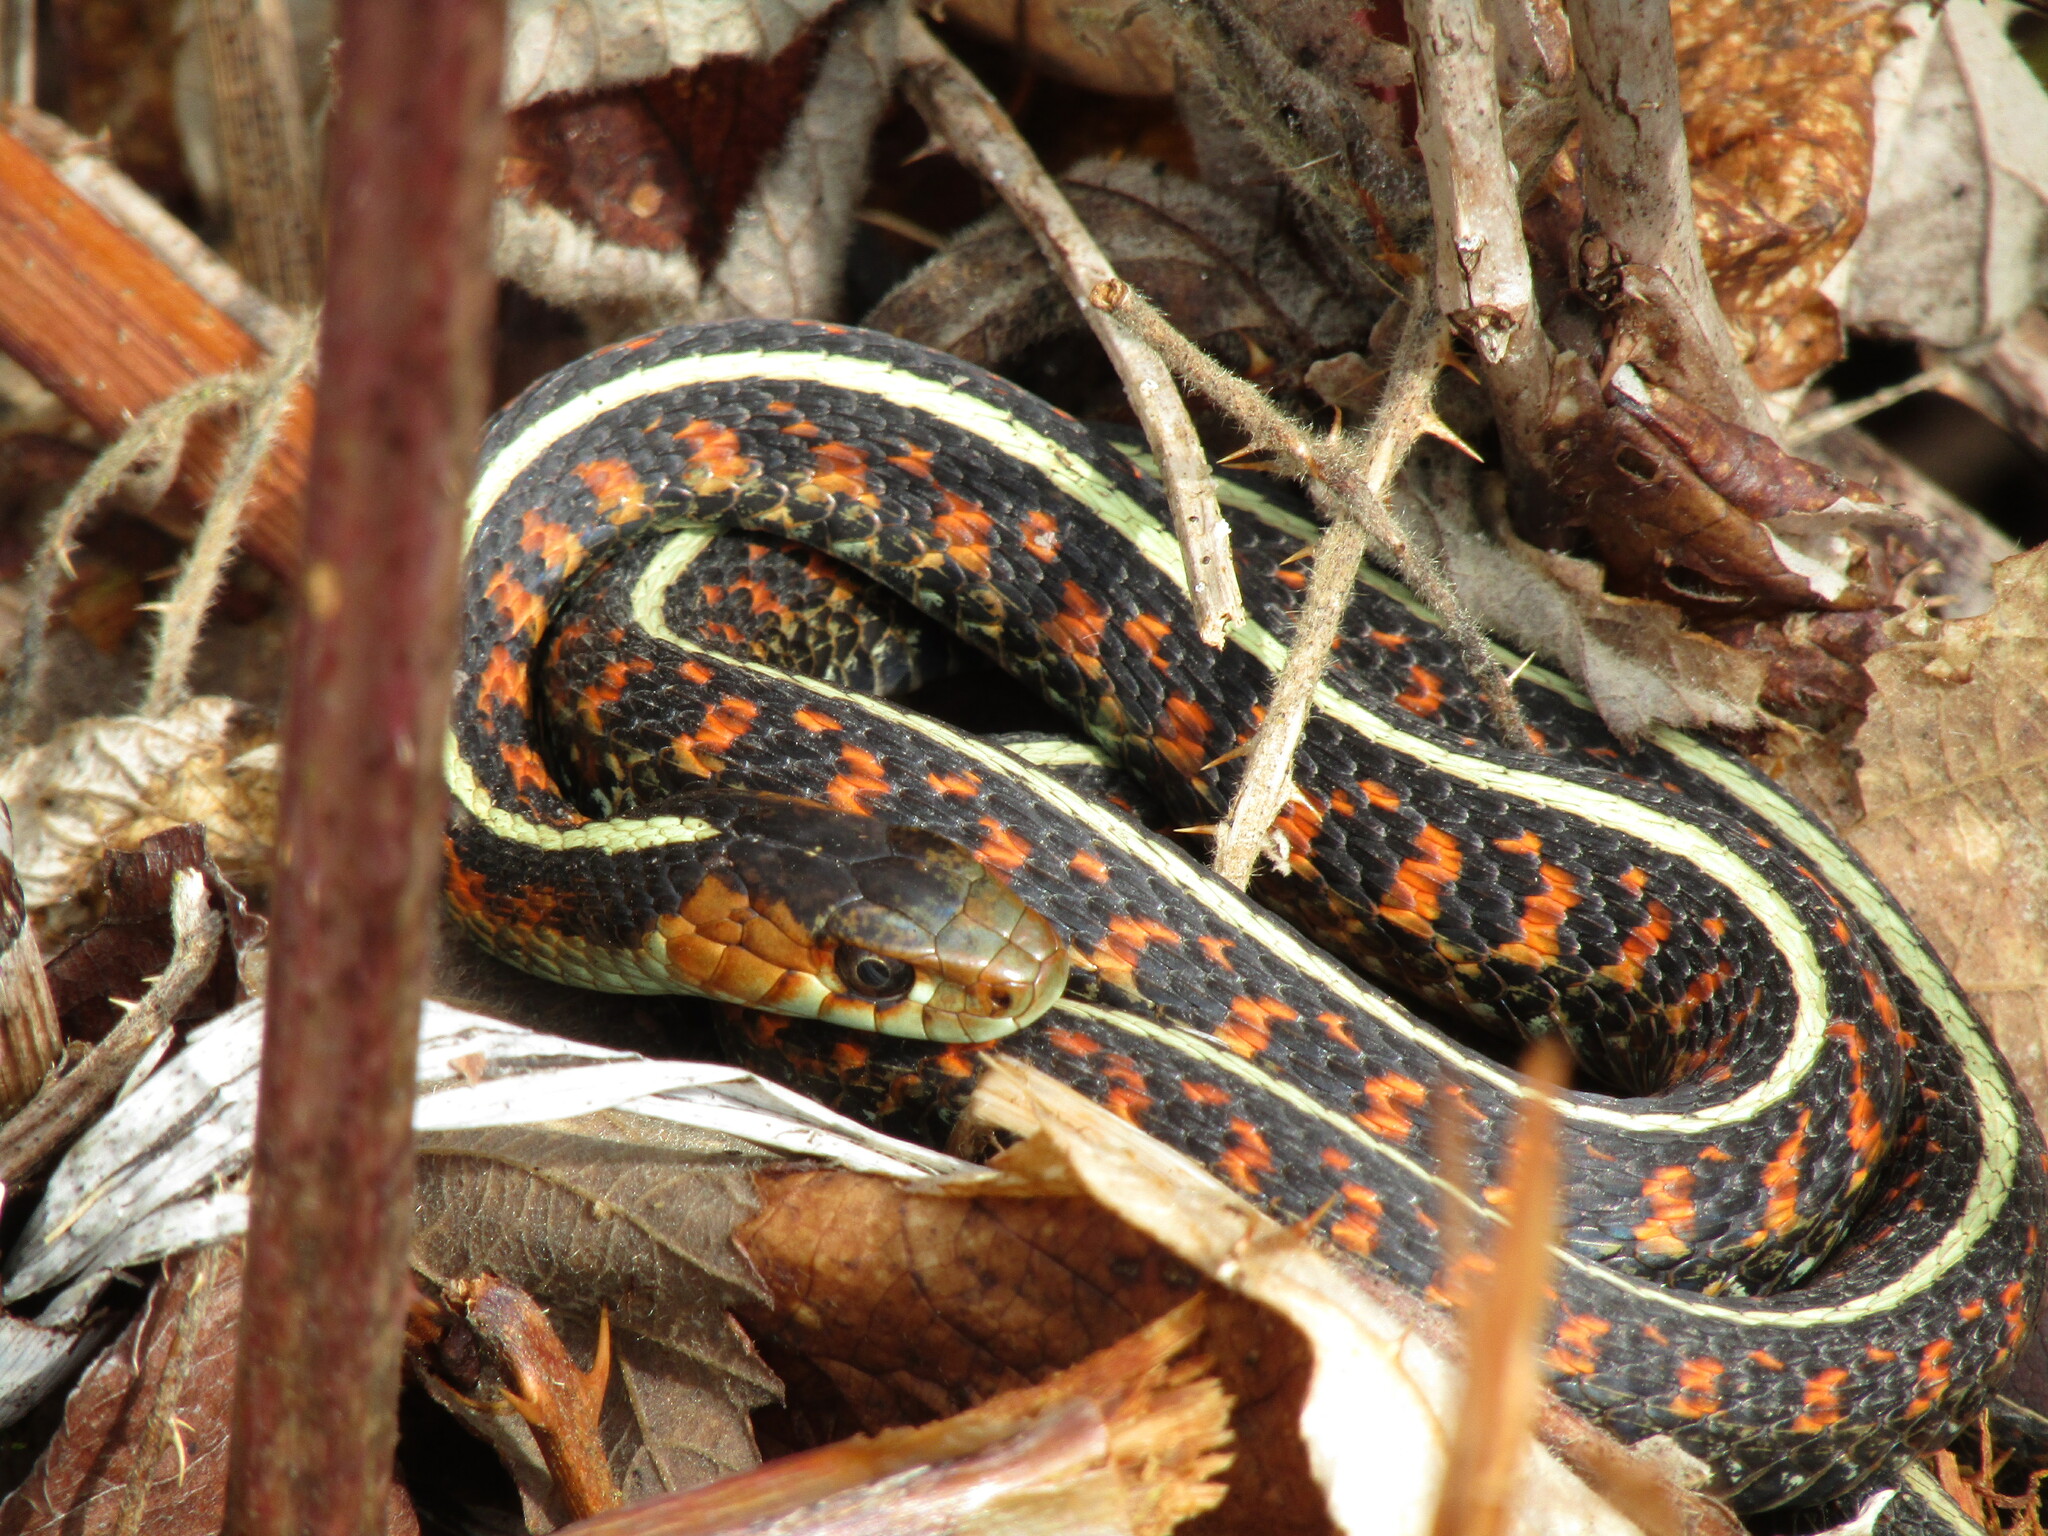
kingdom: Animalia
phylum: Chordata
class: Squamata
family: Colubridae
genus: Thamnophis
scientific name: Thamnophis sirtalis
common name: Common garter snake
